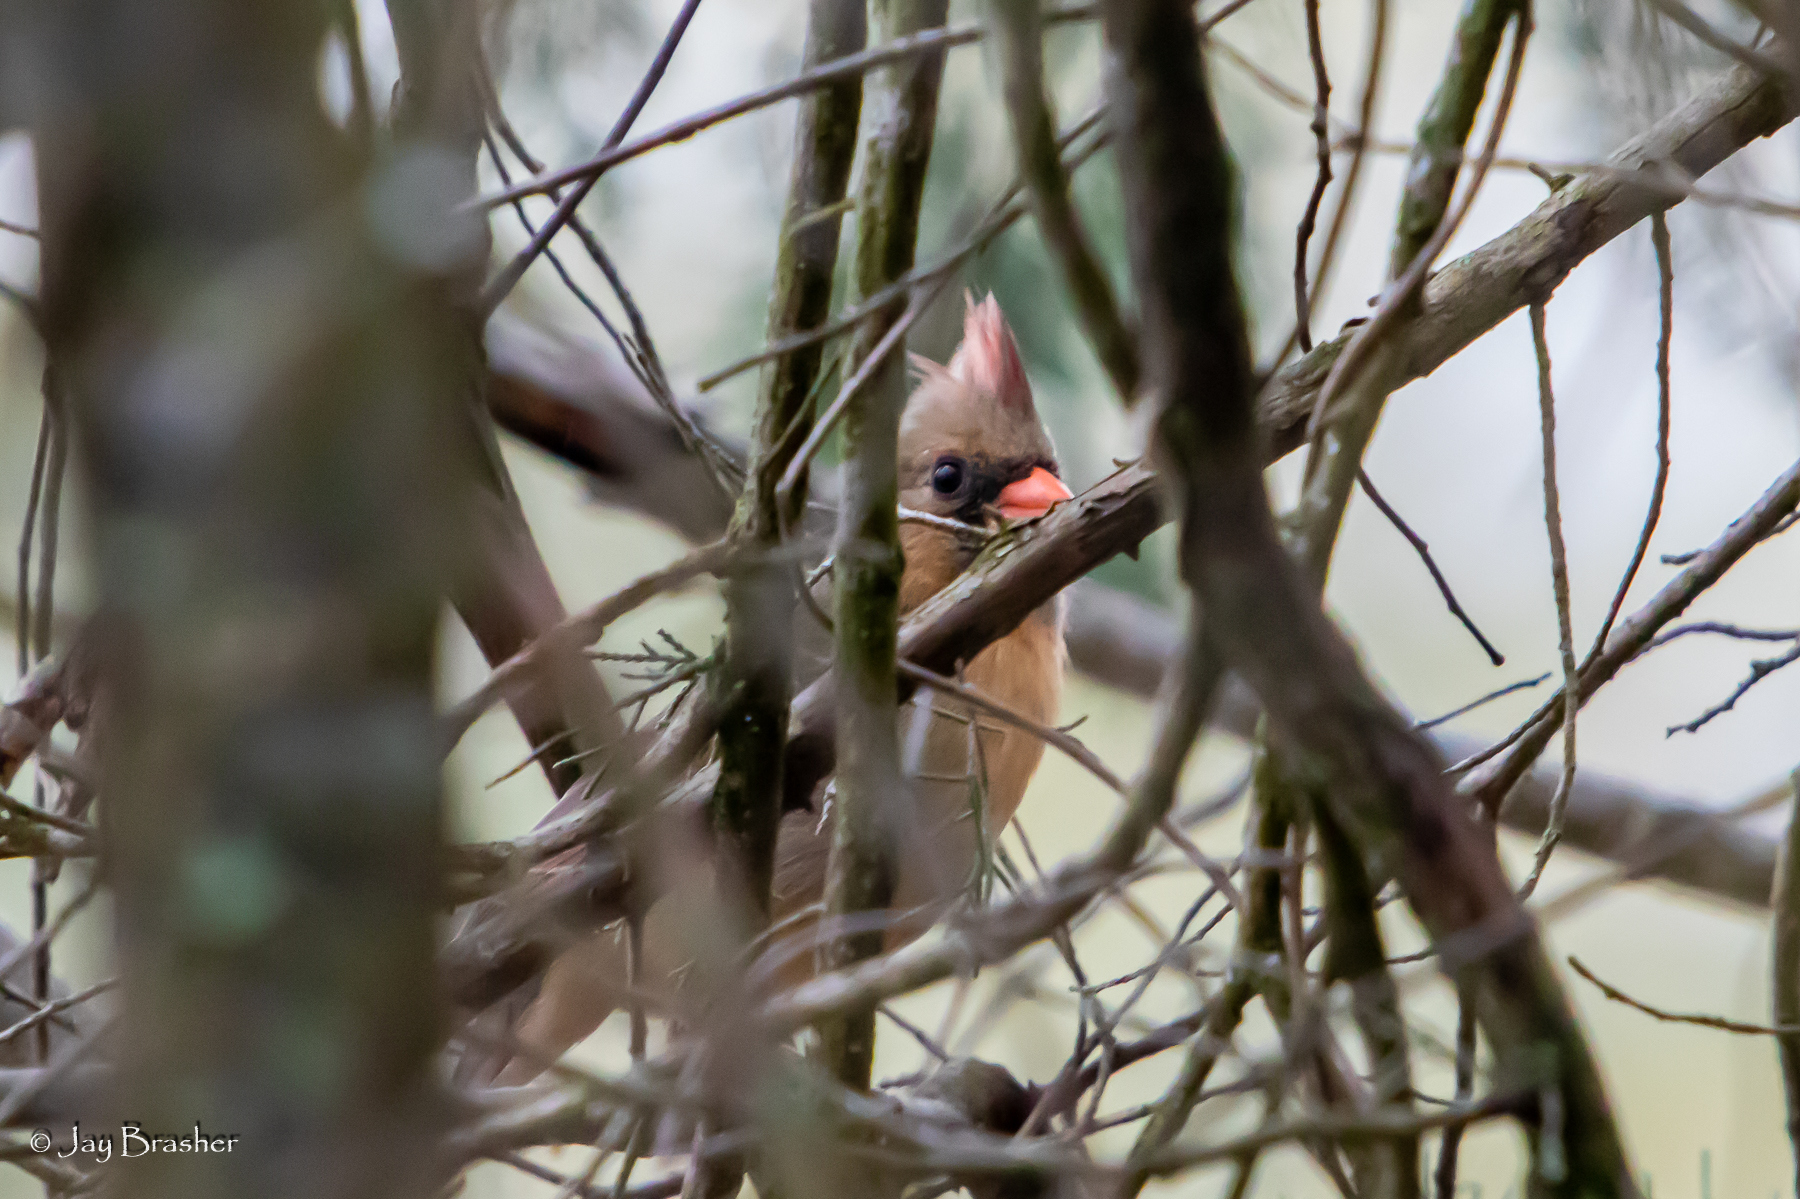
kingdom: Animalia
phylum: Chordata
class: Aves
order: Passeriformes
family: Cardinalidae
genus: Cardinalis
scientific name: Cardinalis cardinalis
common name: Northern cardinal
